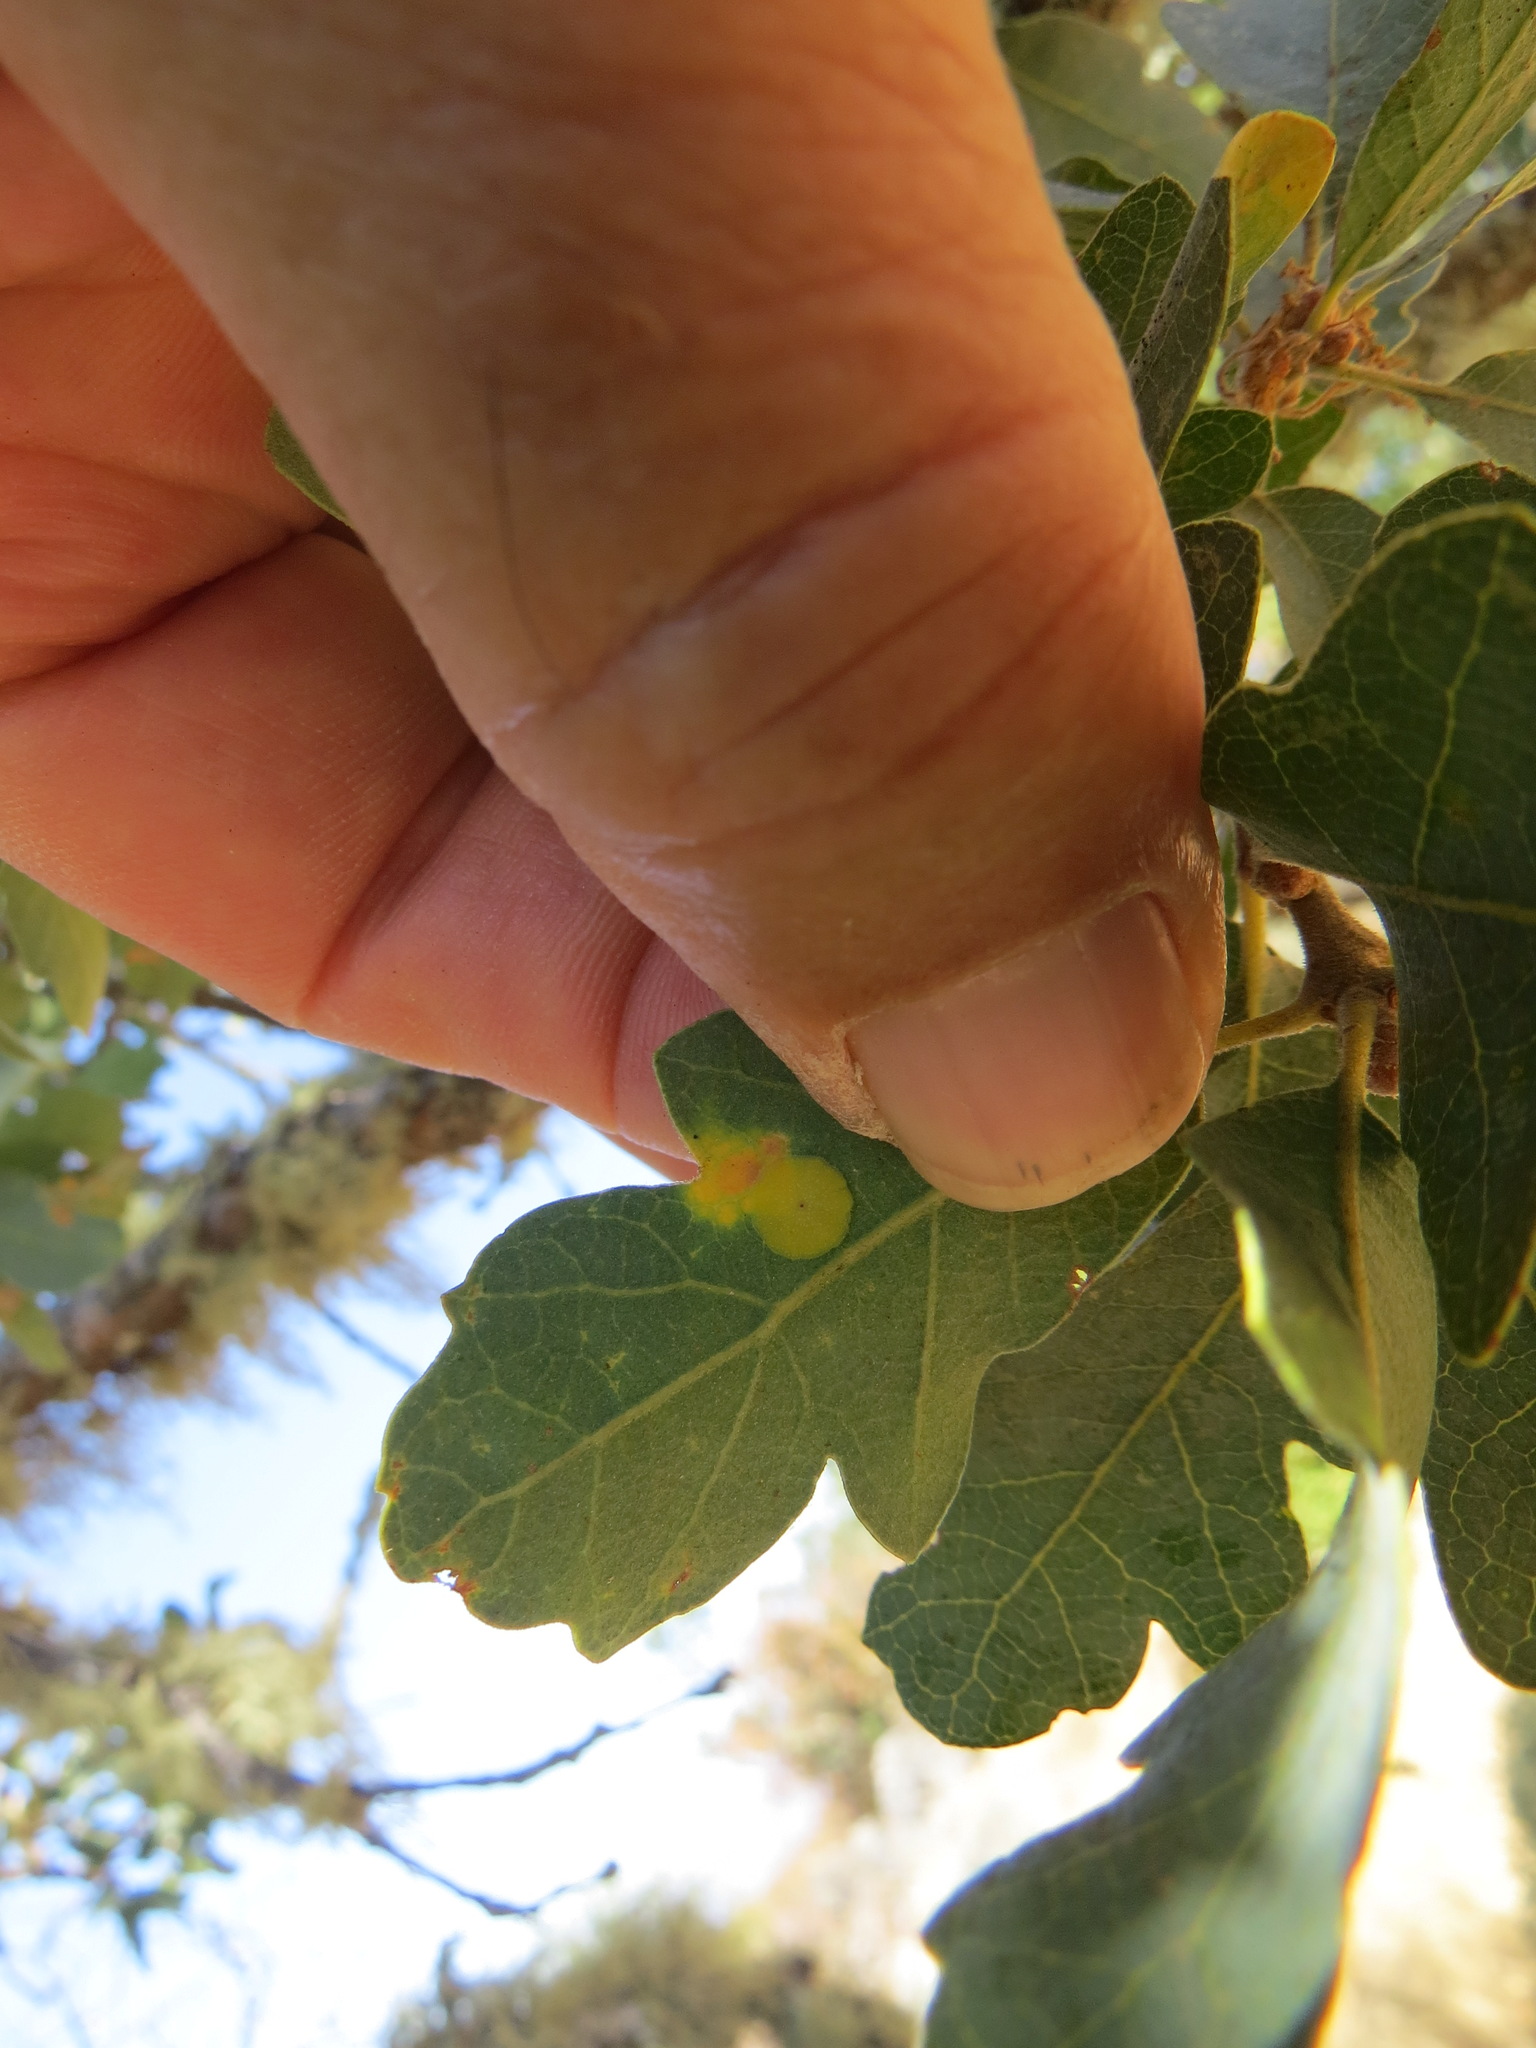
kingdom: Animalia
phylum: Arthropoda
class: Insecta
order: Hymenoptera
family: Cynipidae
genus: Andricus
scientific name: Andricus
